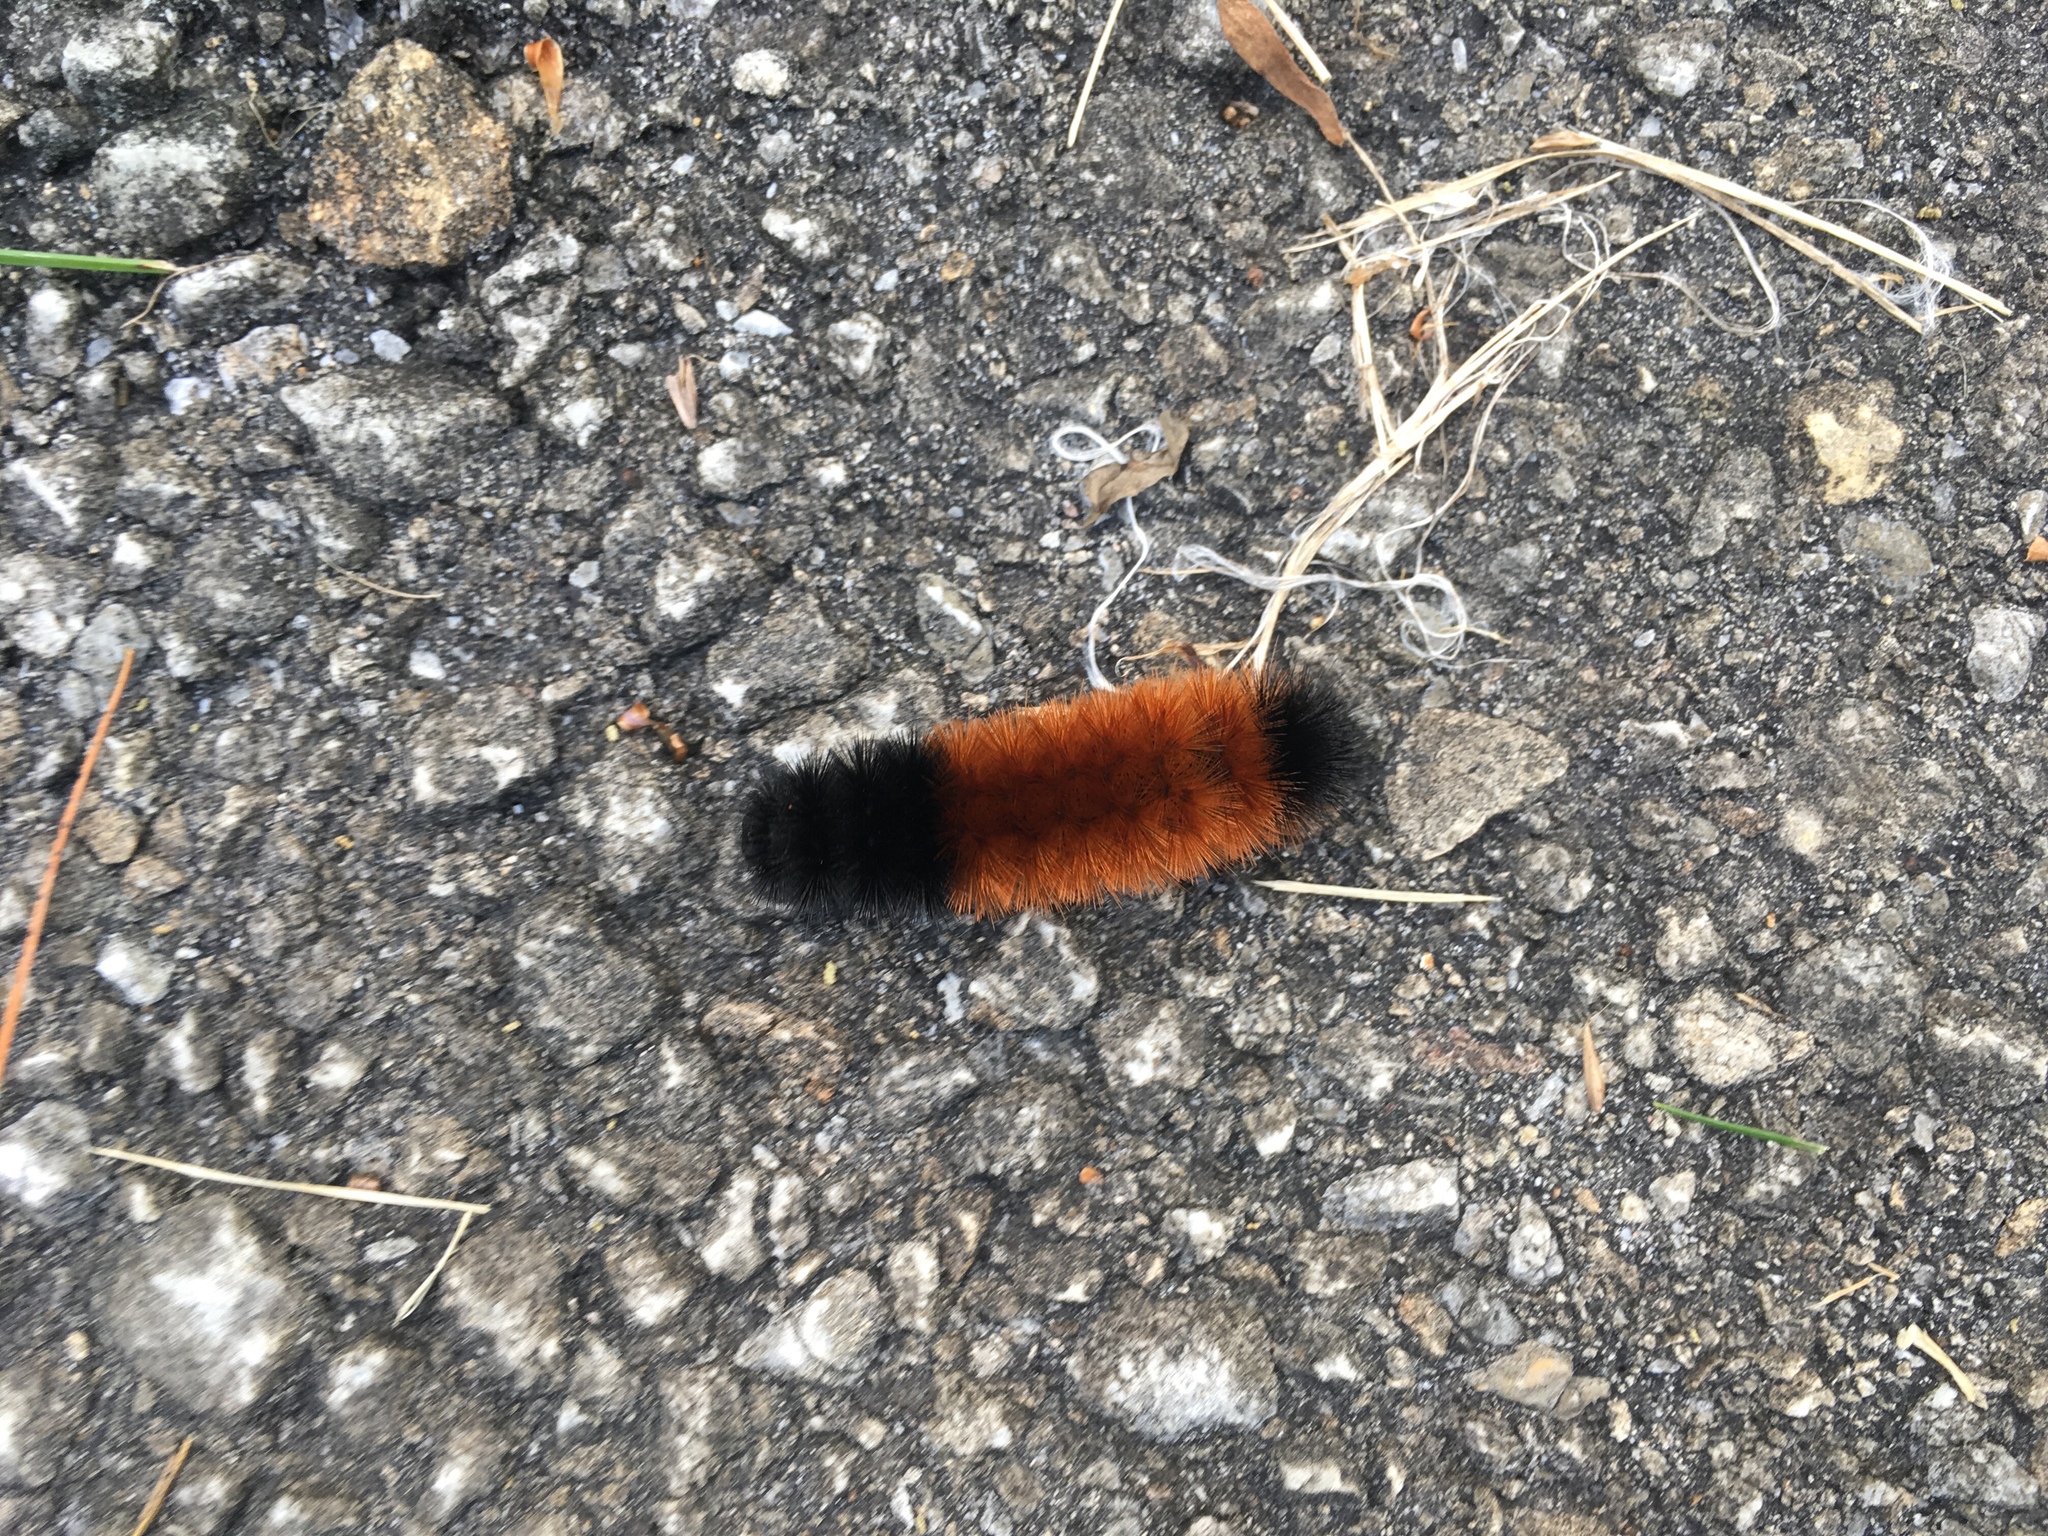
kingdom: Animalia
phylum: Arthropoda
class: Insecta
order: Lepidoptera
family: Erebidae
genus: Pyrrharctia
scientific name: Pyrrharctia isabella
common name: Isabella tiger moth
